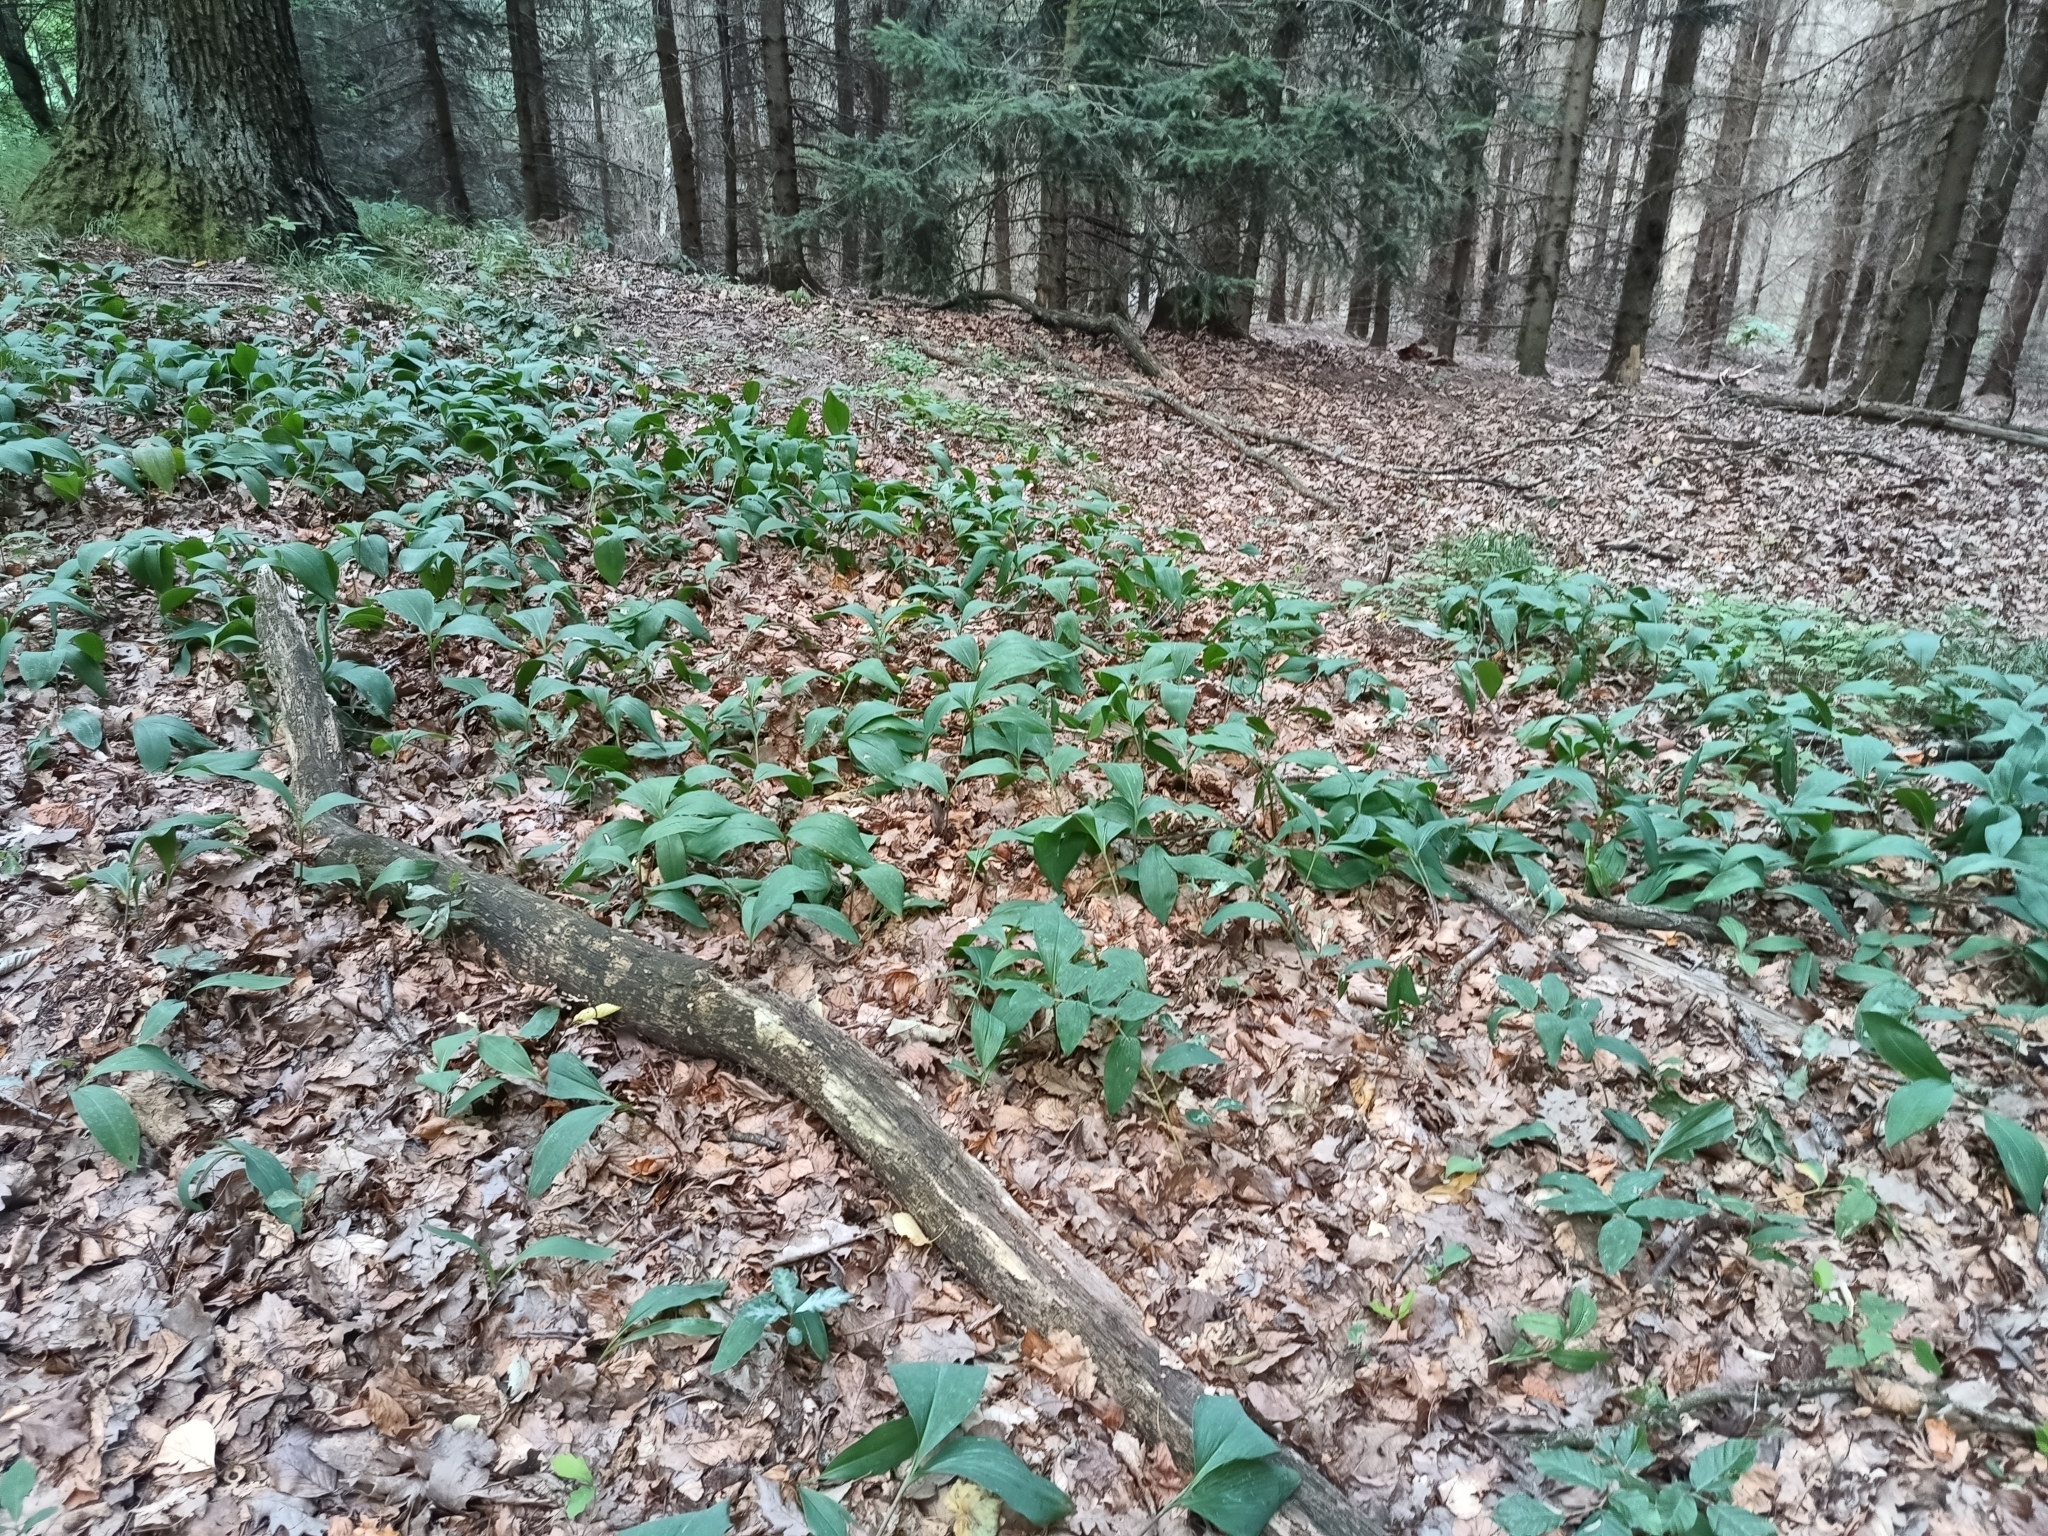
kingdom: Plantae
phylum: Tracheophyta
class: Liliopsida
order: Asparagales
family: Asparagaceae
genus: Convallaria
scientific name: Convallaria majalis
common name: Lily-of-the-valley
